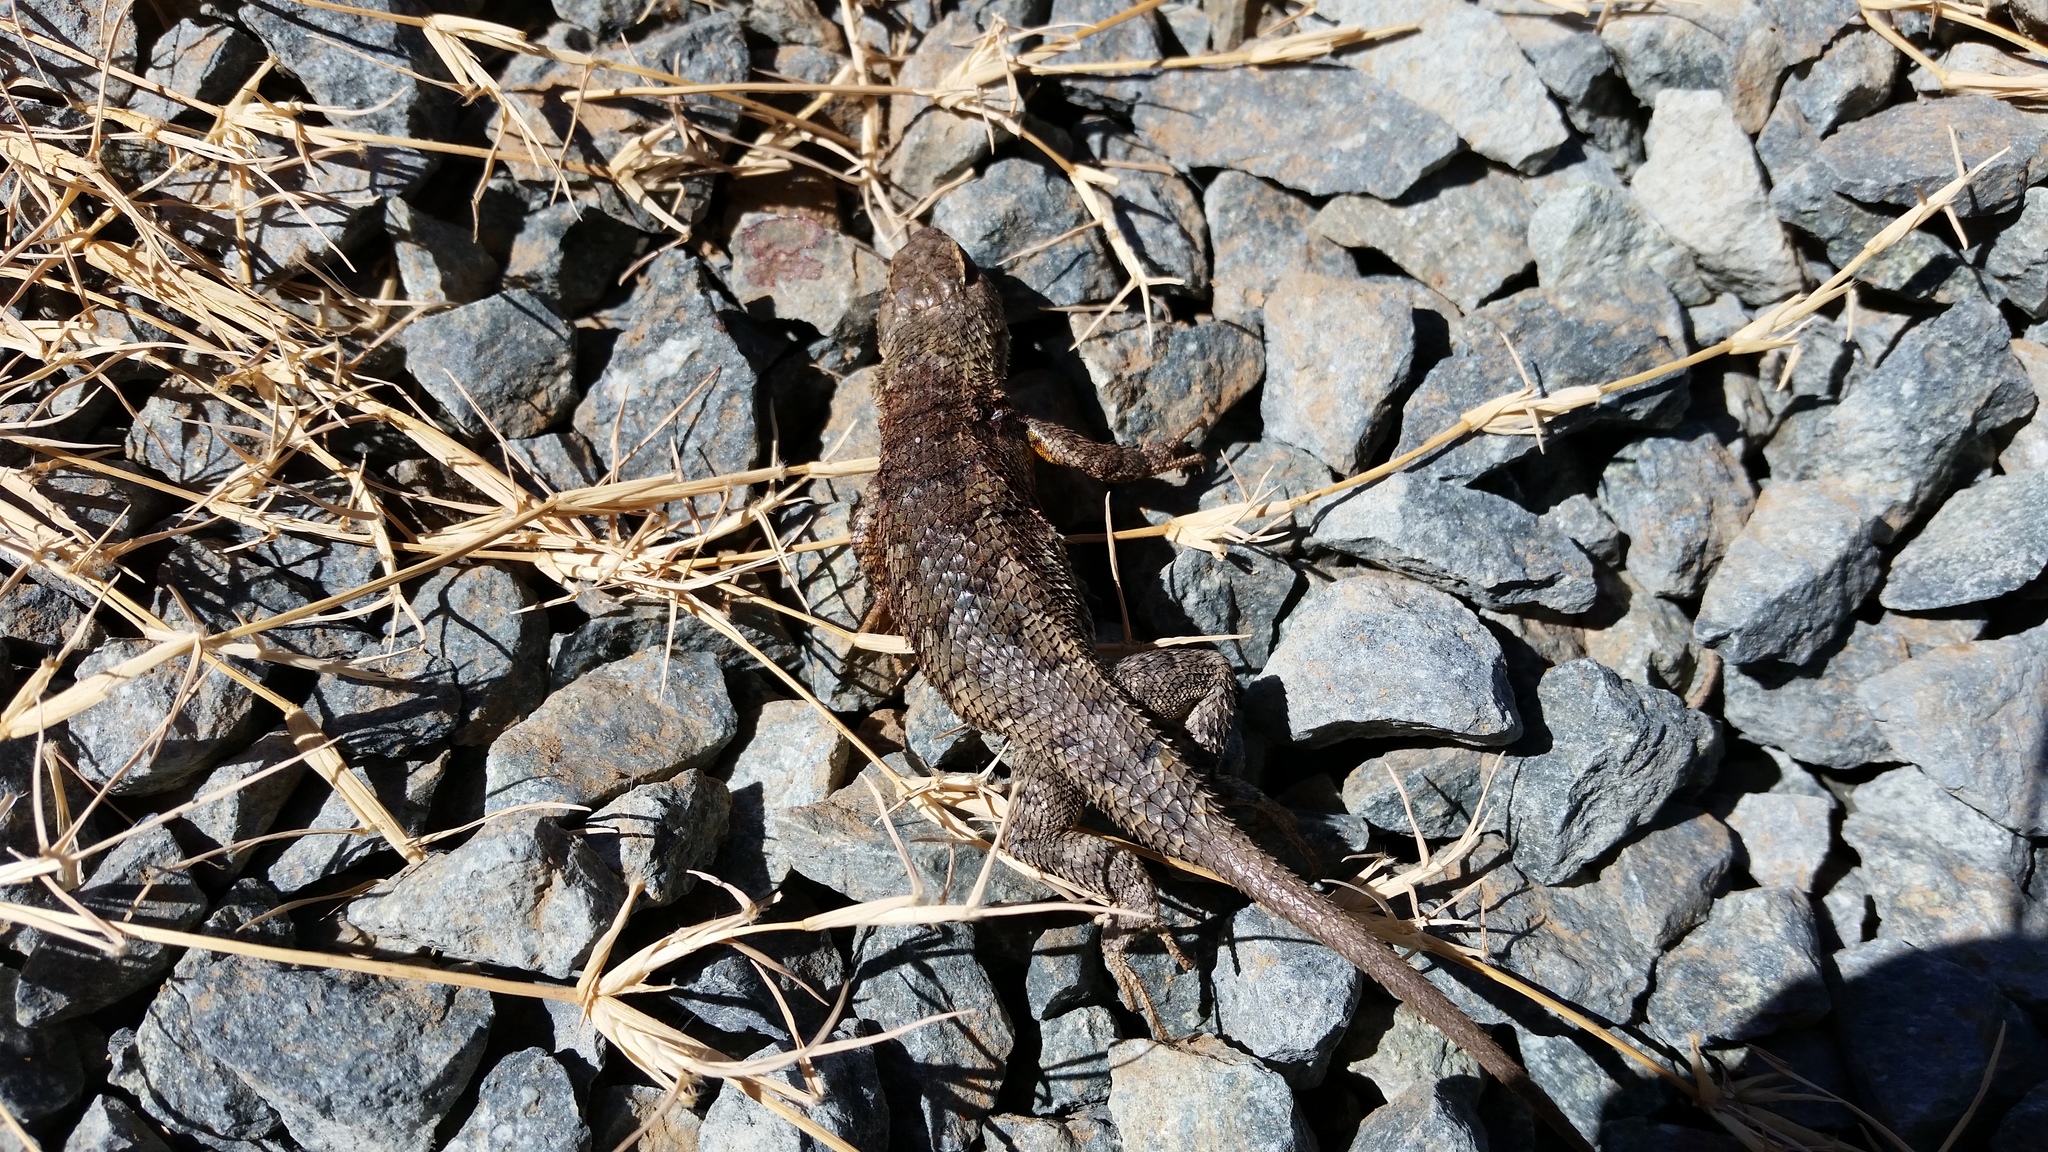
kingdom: Animalia
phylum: Chordata
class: Squamata
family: Phrynosomatidae
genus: Sceloporus
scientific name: Sceloporus occidentalis
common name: Western fence lizard
